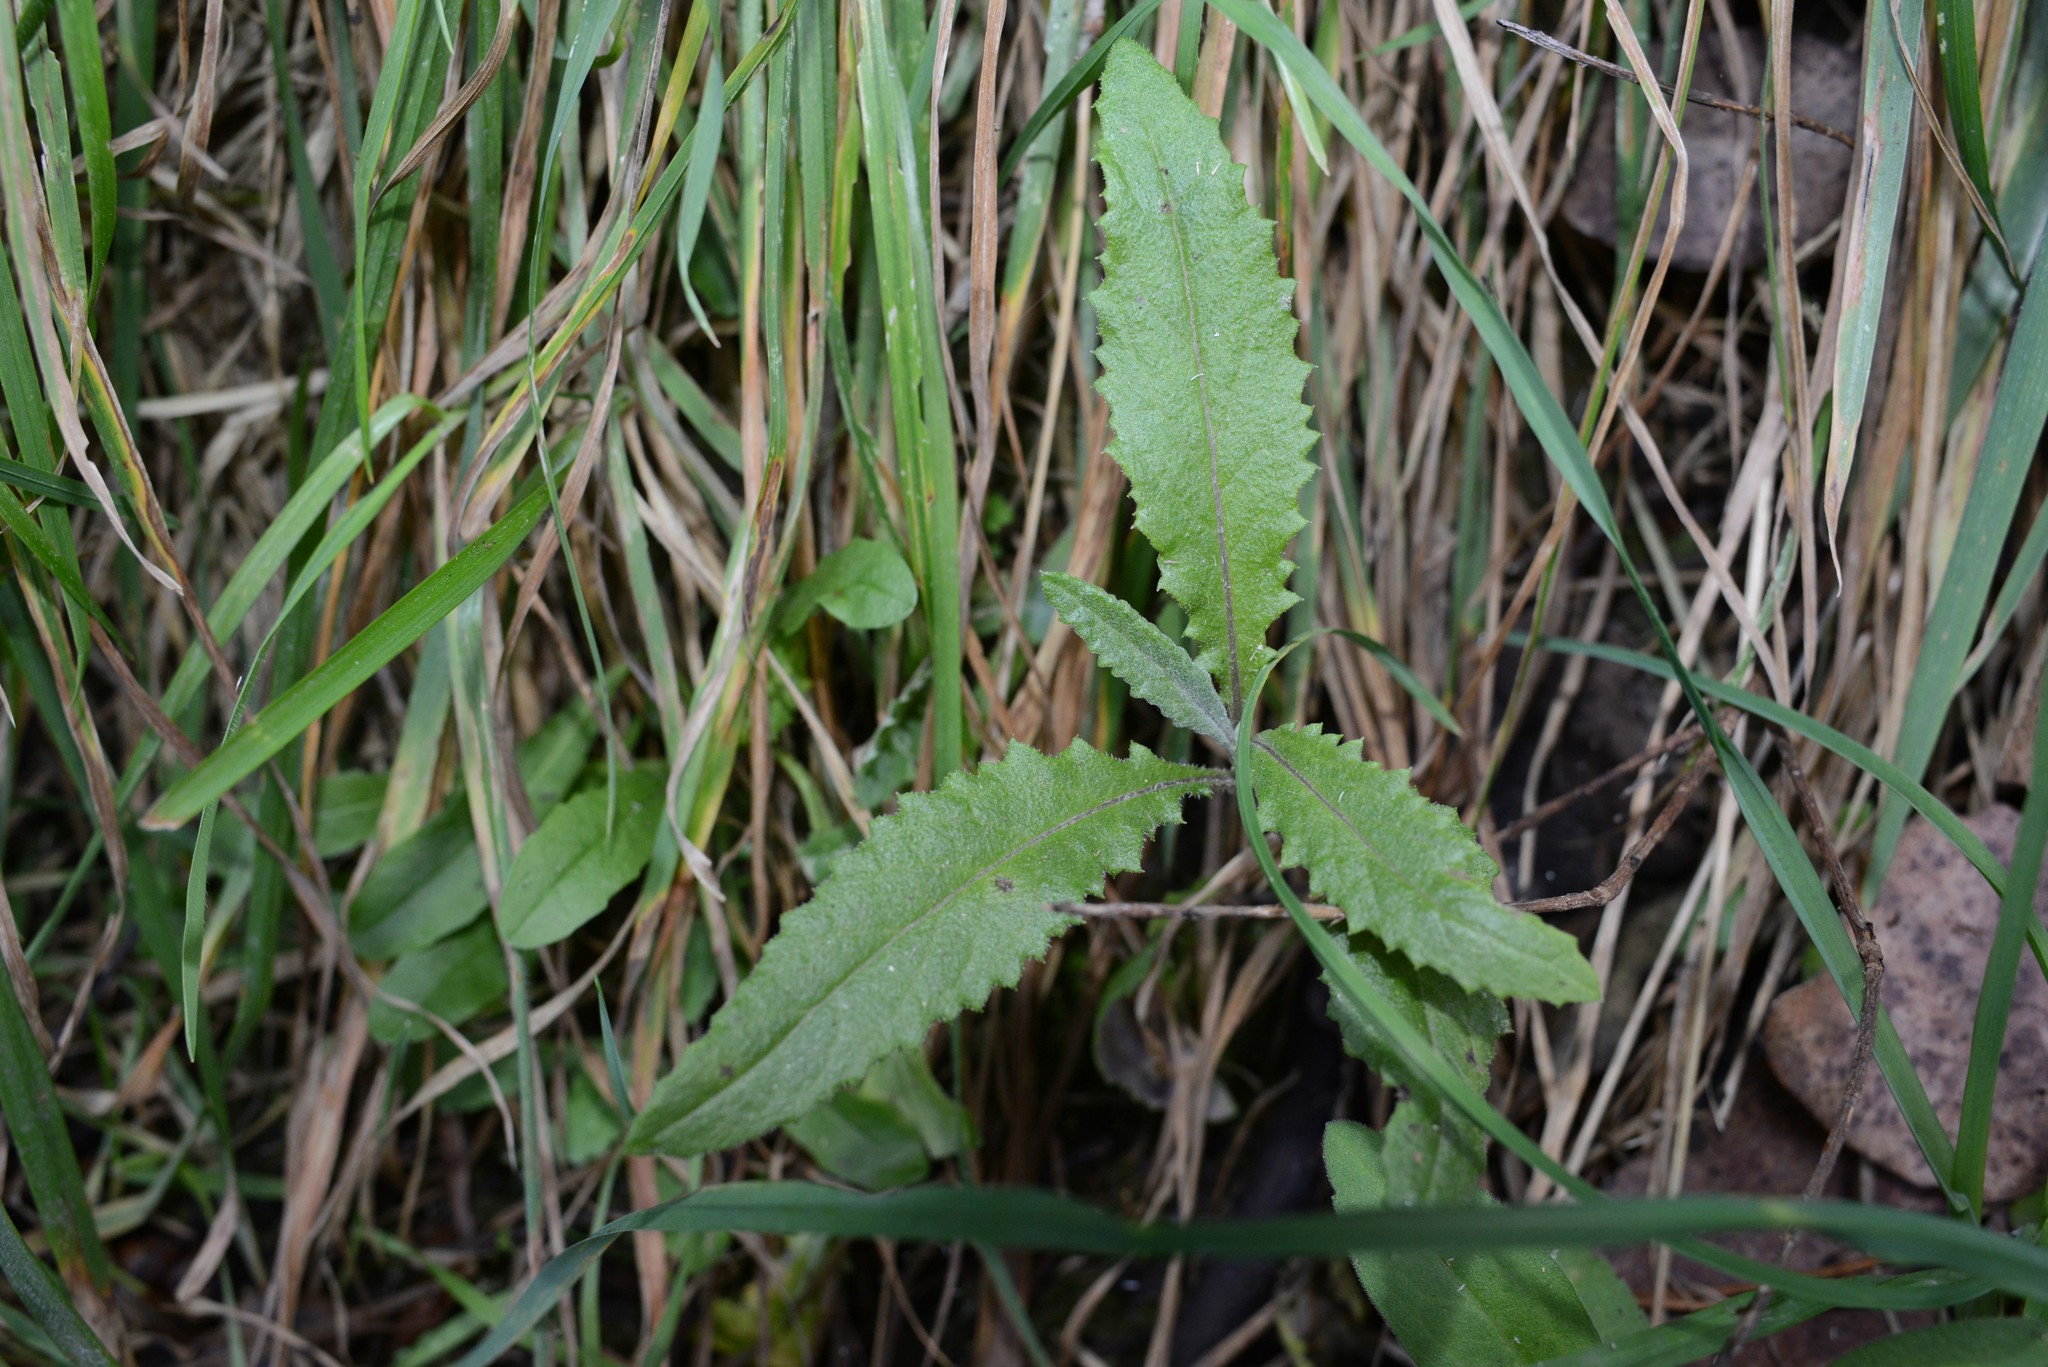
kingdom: Plantae
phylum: Tracheophyta
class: Magnoliopsida
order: Asterales
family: Asteraceae
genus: Senecio
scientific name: Senecio minimus
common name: Toothed fireweed
